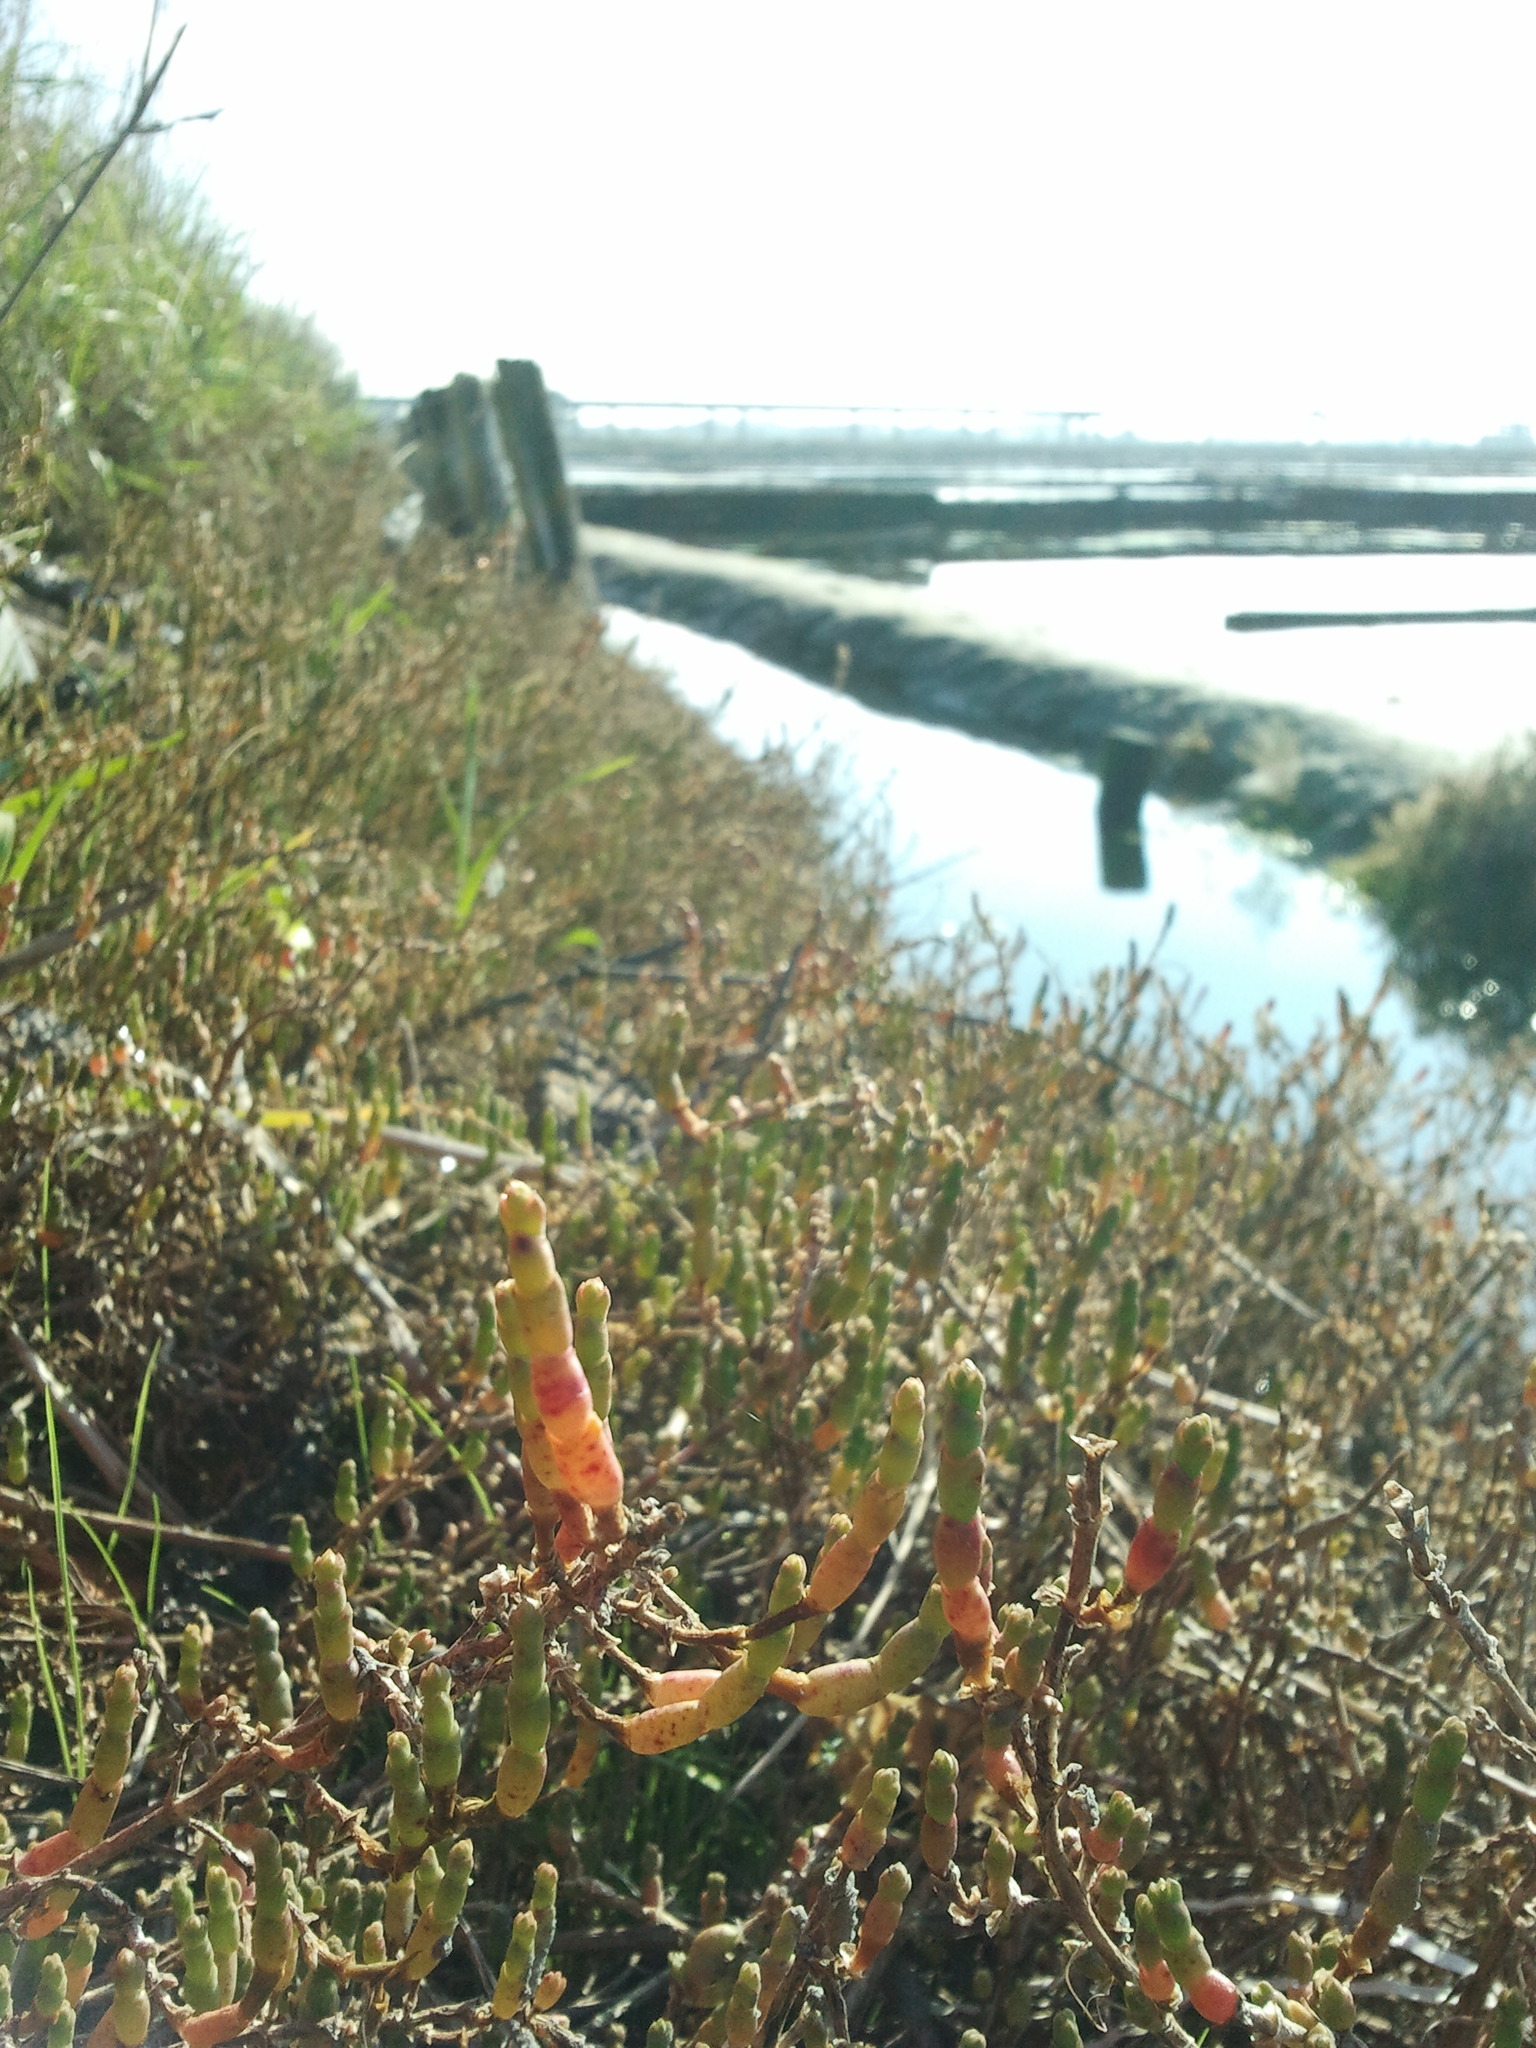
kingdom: Plantae
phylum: Tracheophyta
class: Magnoliopsida
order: Caryophyllales
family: Amaranthaceae
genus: Salicornia
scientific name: Salicornia
